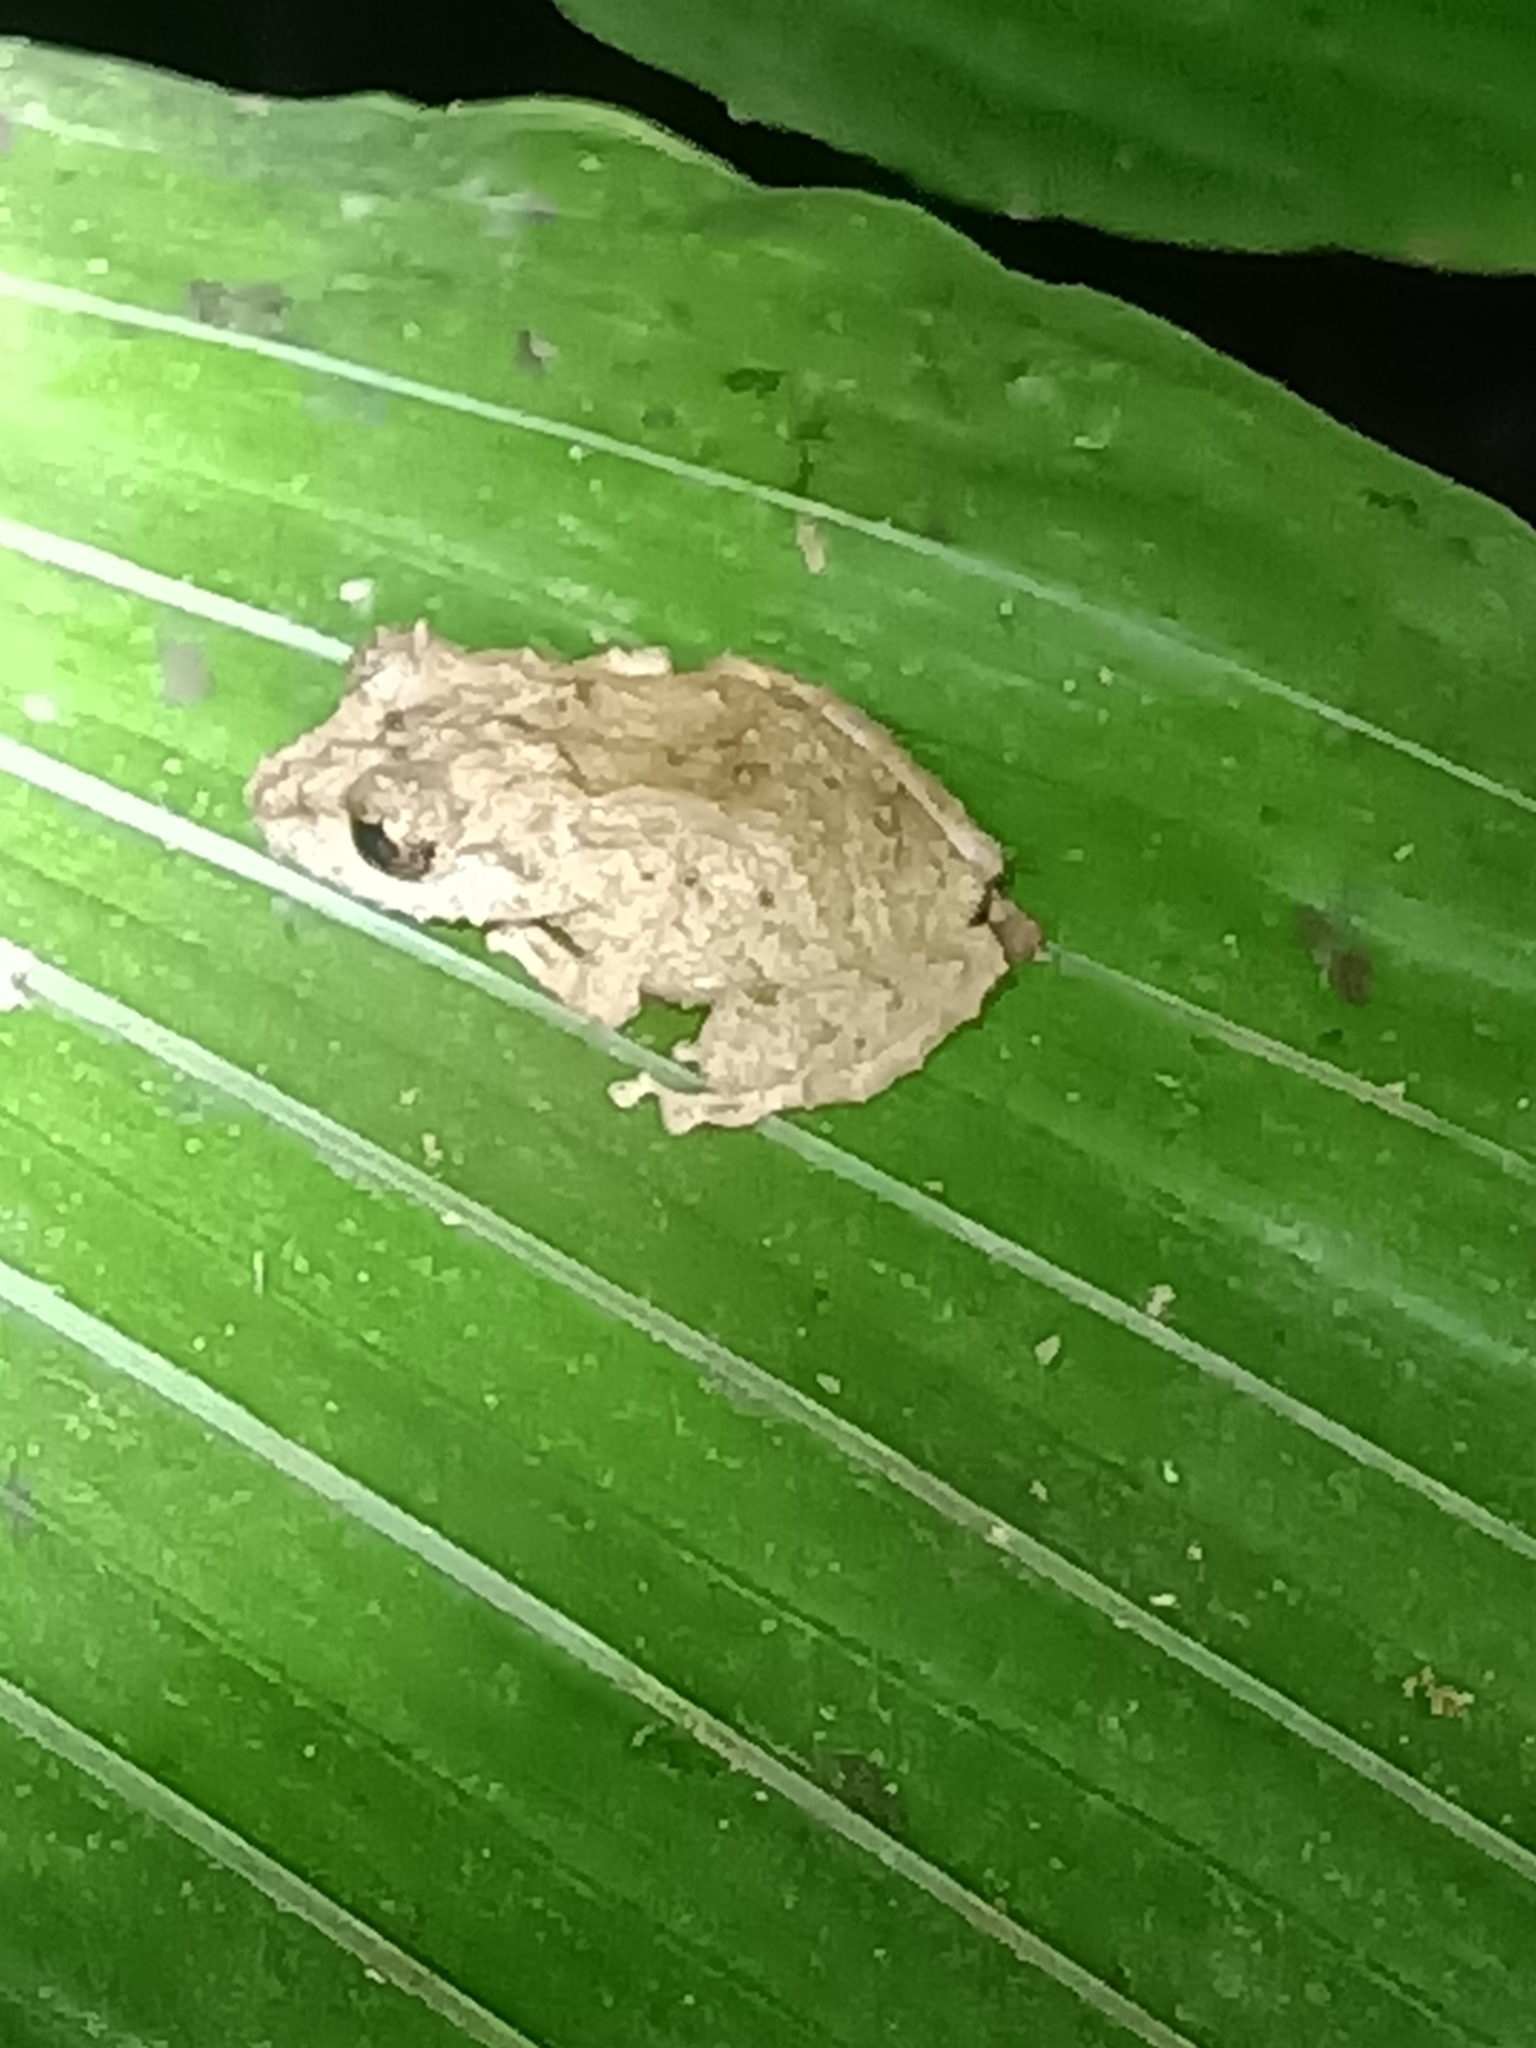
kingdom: Animalia
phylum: Chordata
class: Amphibia
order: Anura
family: Craugastoridae
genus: Pristimantis
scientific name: Pristimantis inguinalis
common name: New river south american rain frog
